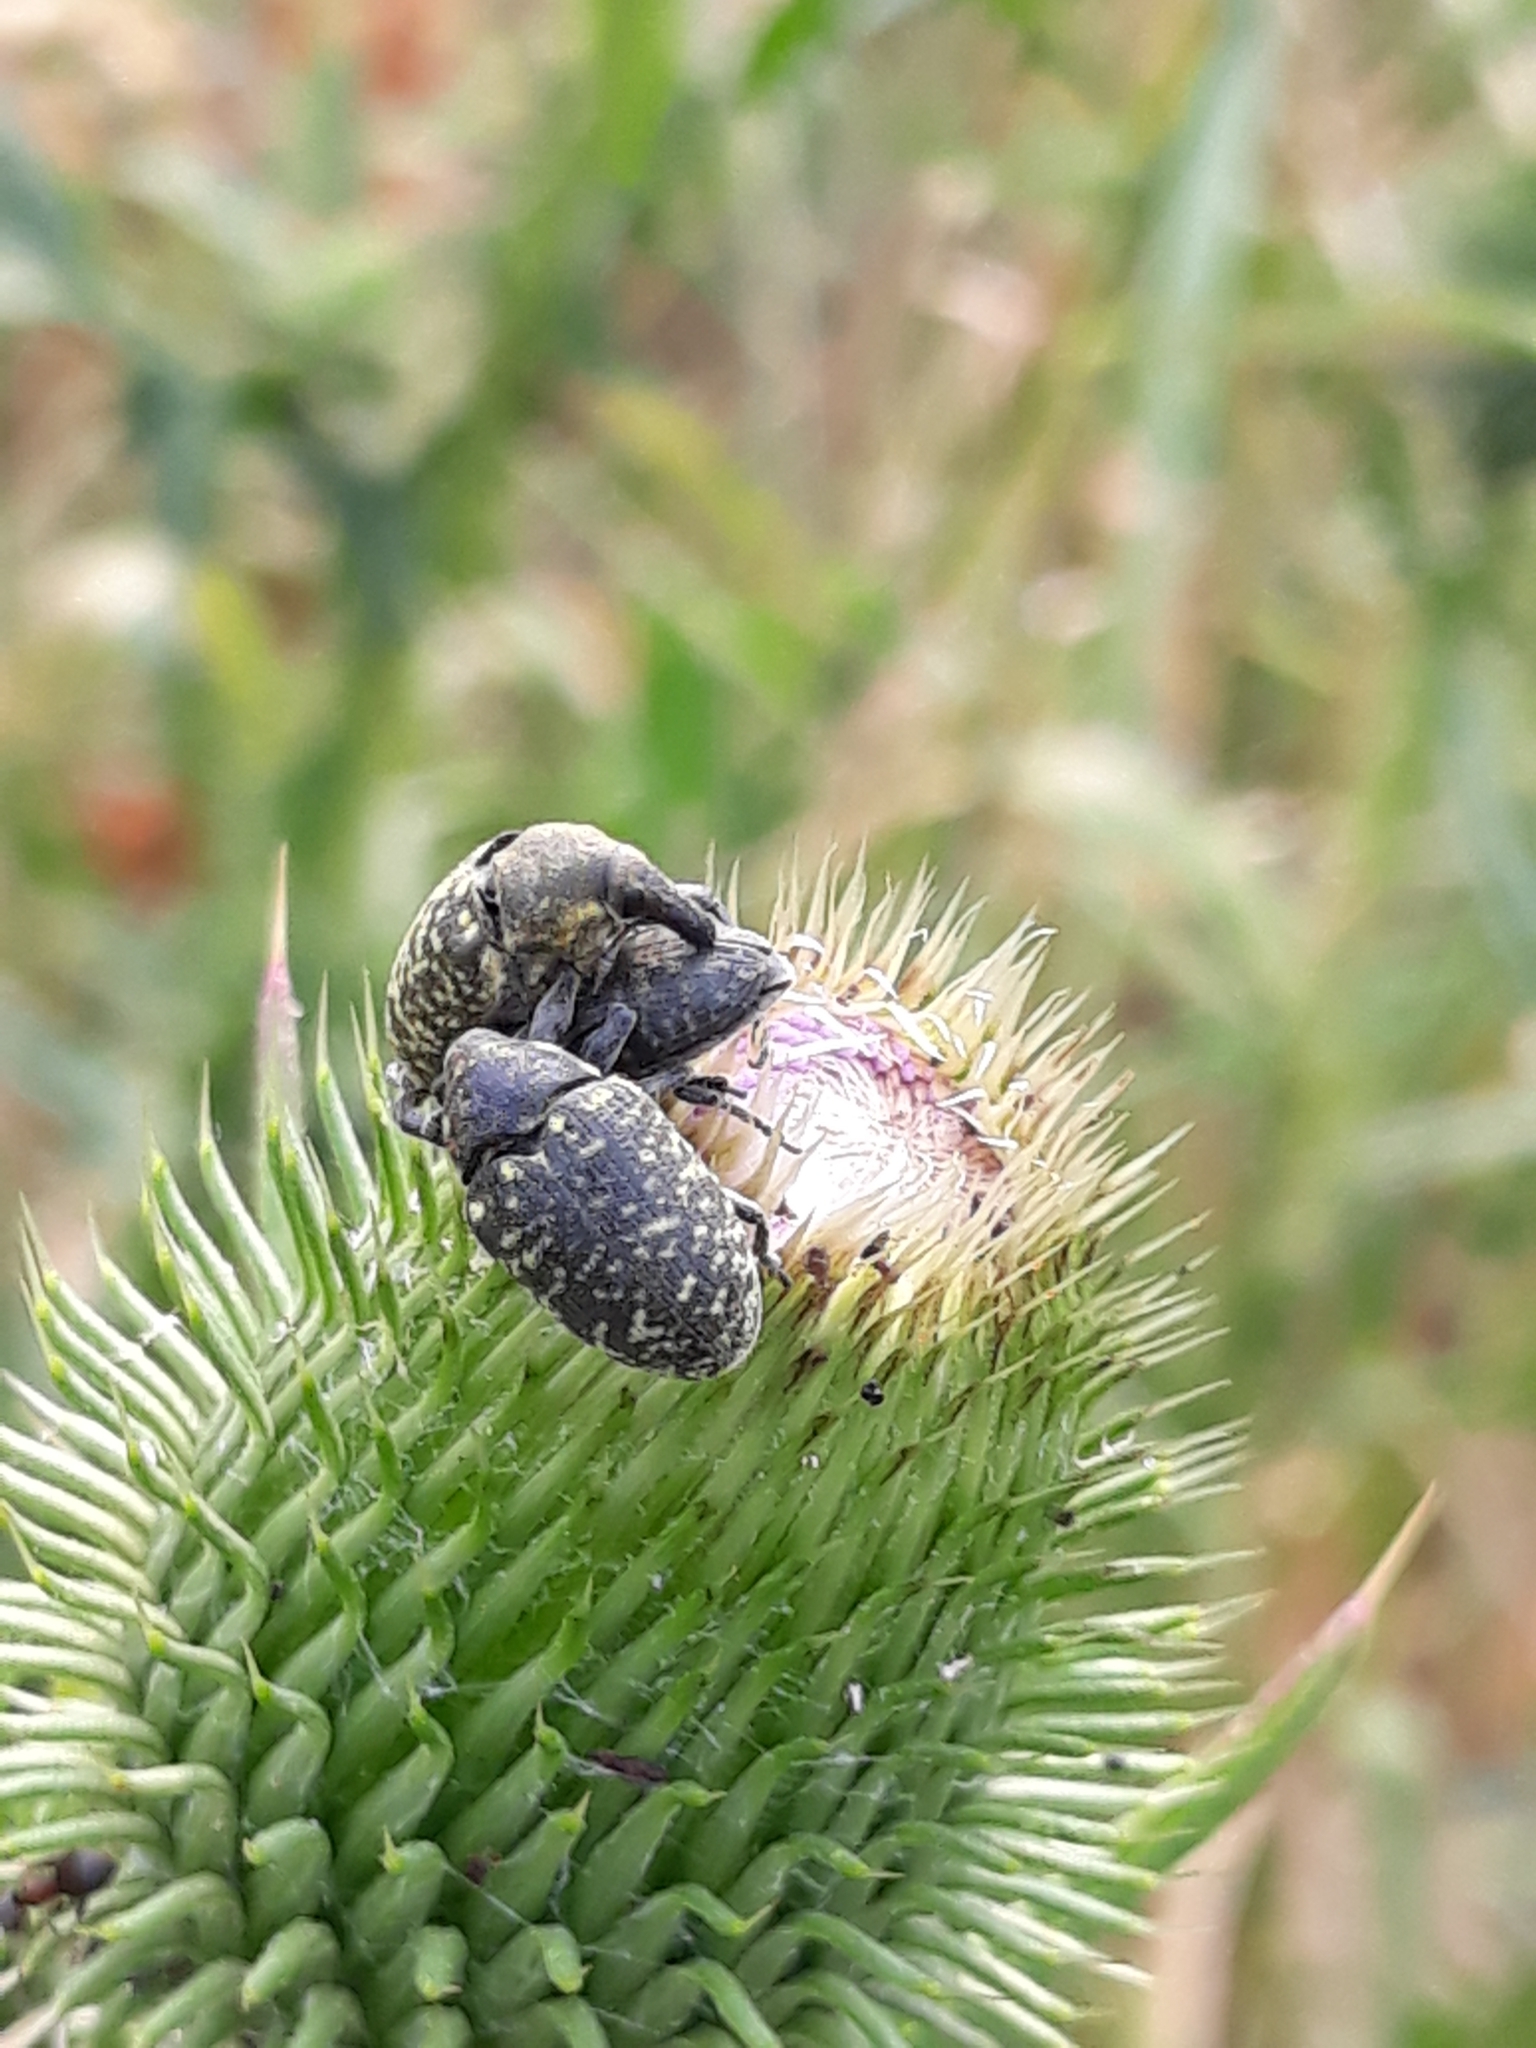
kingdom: Animalia
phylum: Arthropoda
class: Insecta
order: Coleoptera
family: Curculionidae
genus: Larinus
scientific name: Larinus turbinatus
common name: Weevil
